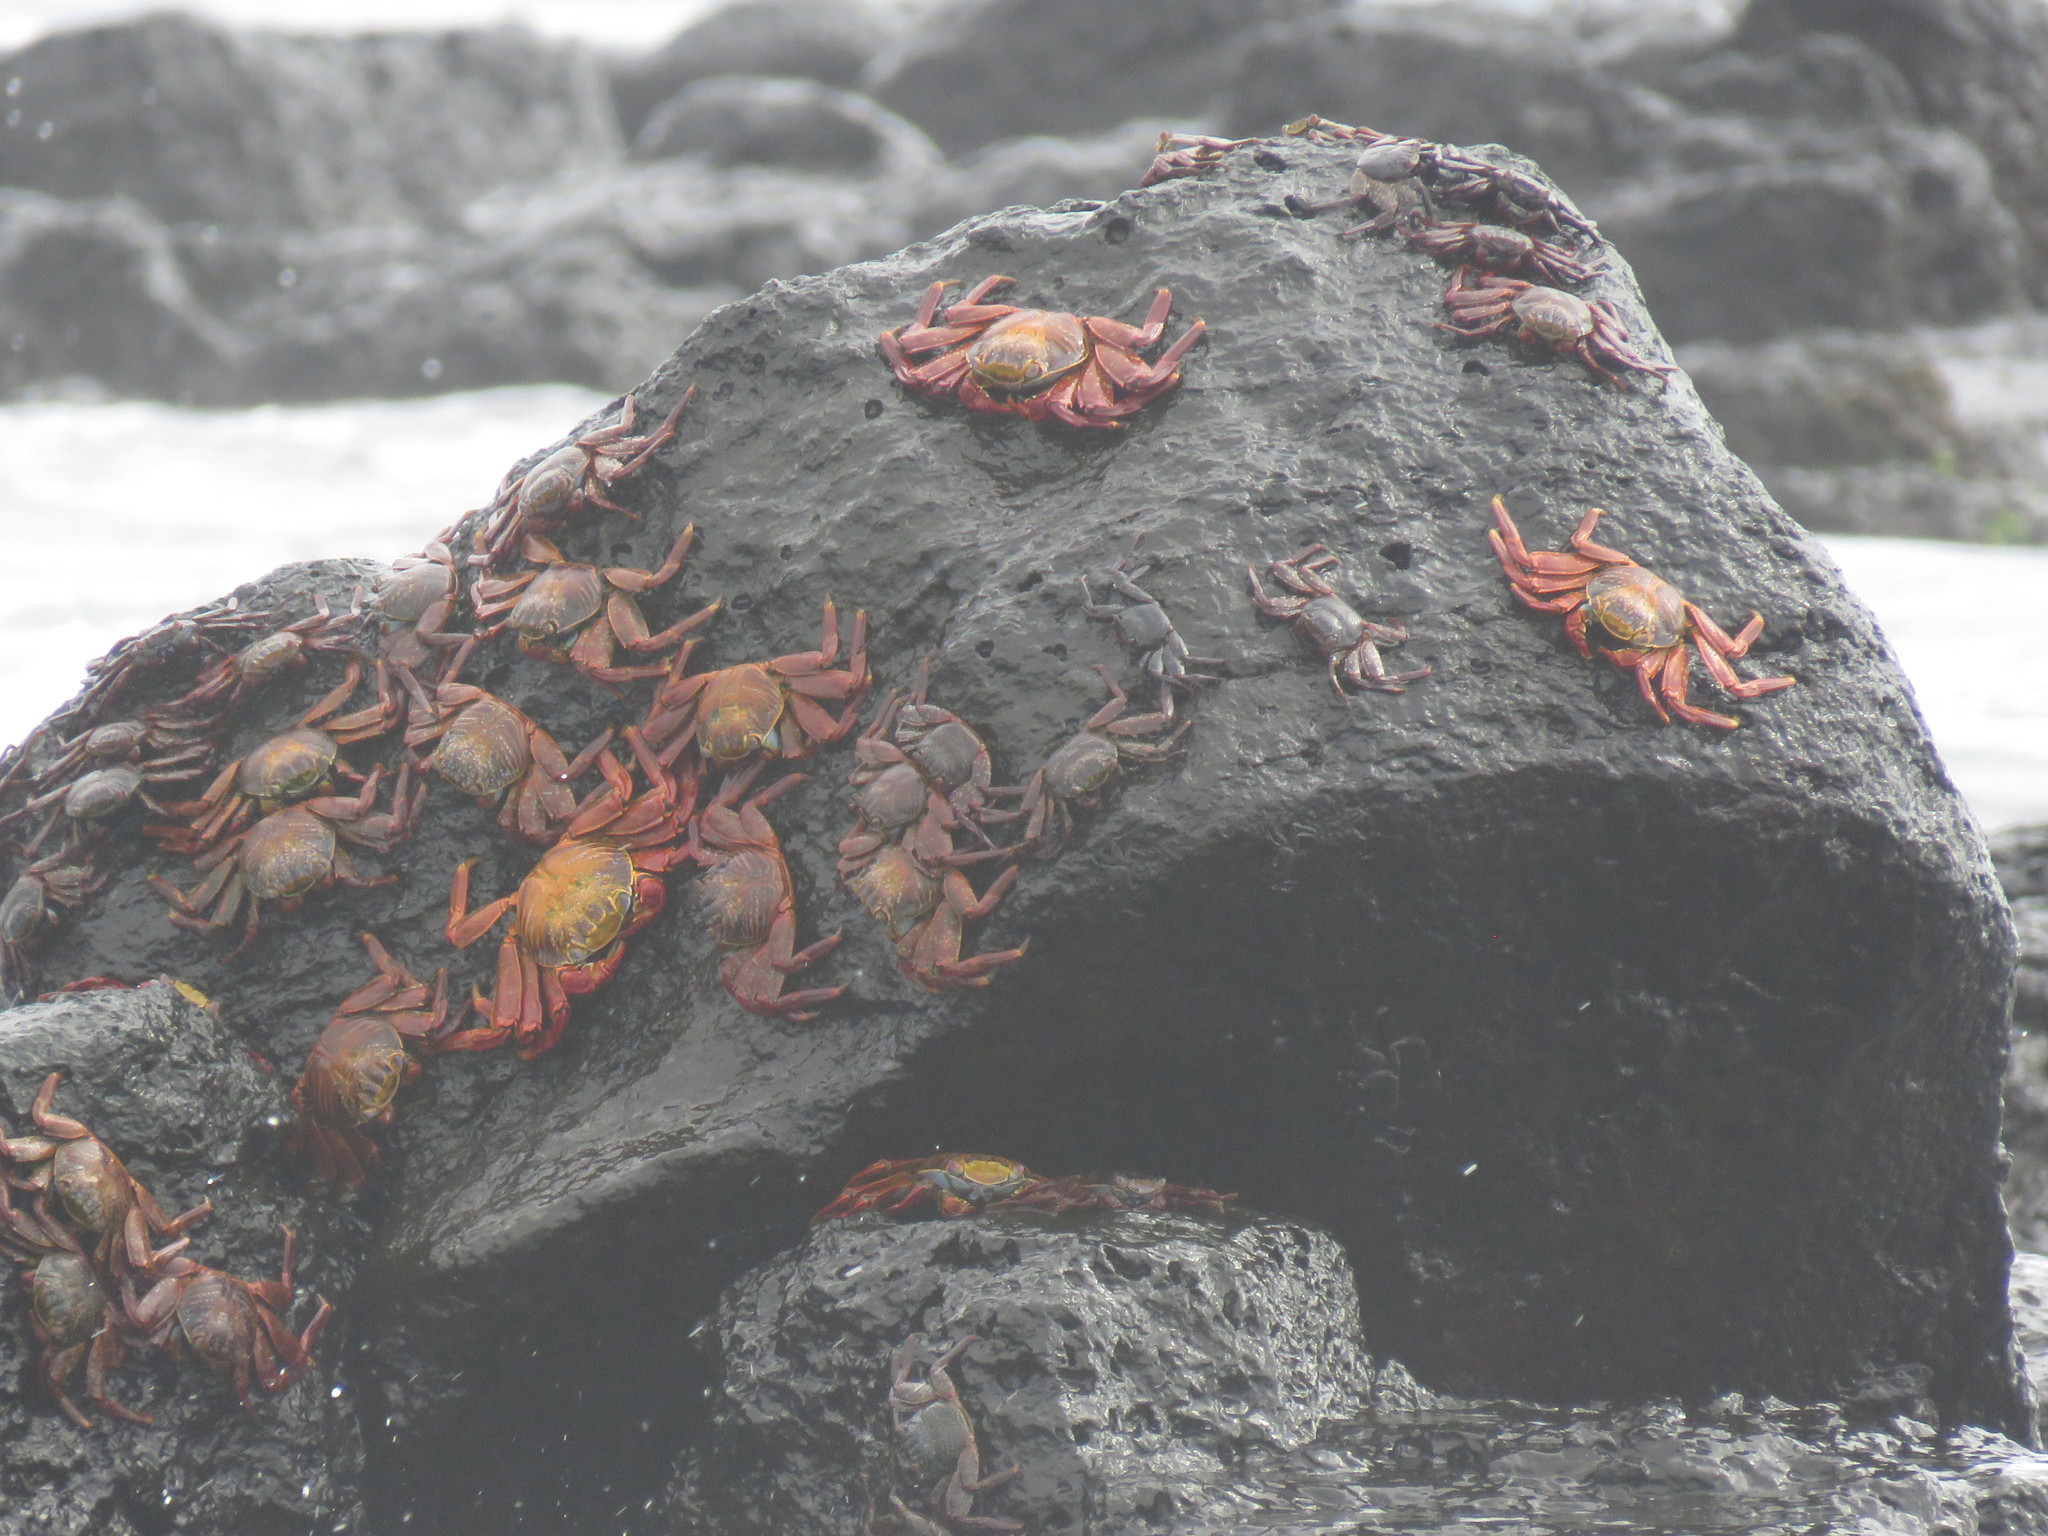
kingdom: Animalia
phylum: Arthropoda
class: Malacostraca
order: Decapoda
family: Grapsidae
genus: Grapsus
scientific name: Grapsus grapsus
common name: Sally lightfoot
